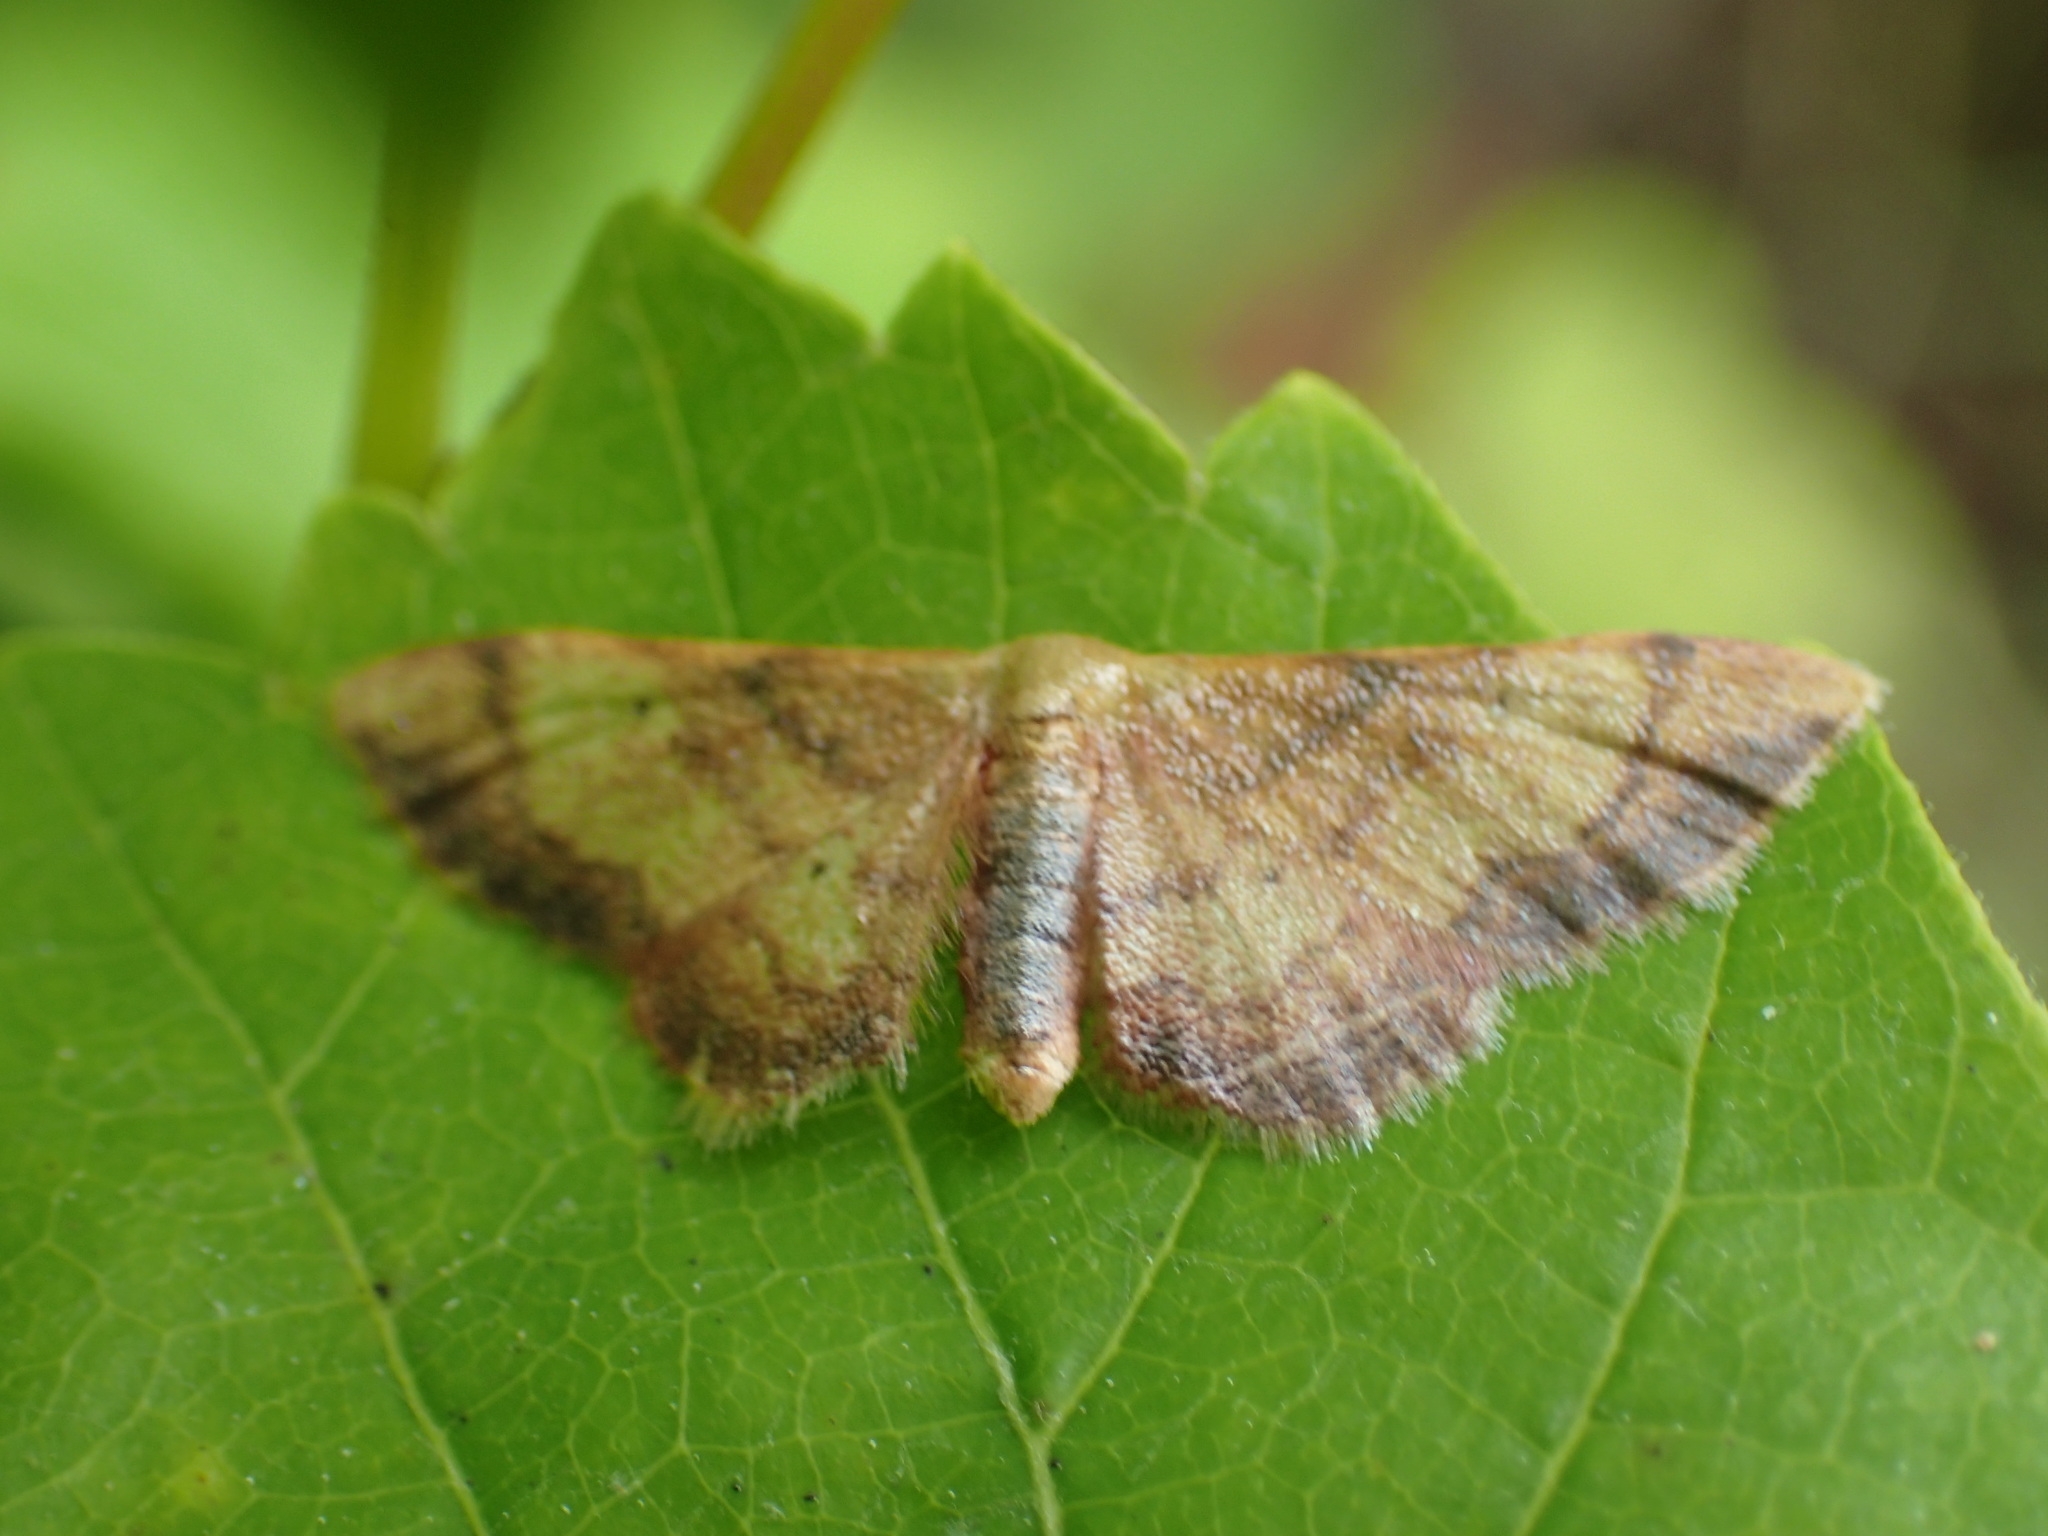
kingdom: Animalia
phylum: Arthropoda
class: Insecta
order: Lepidoptera
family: Geometridae
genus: Idaea
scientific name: Idaea demissaria
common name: Red-bordered wave
